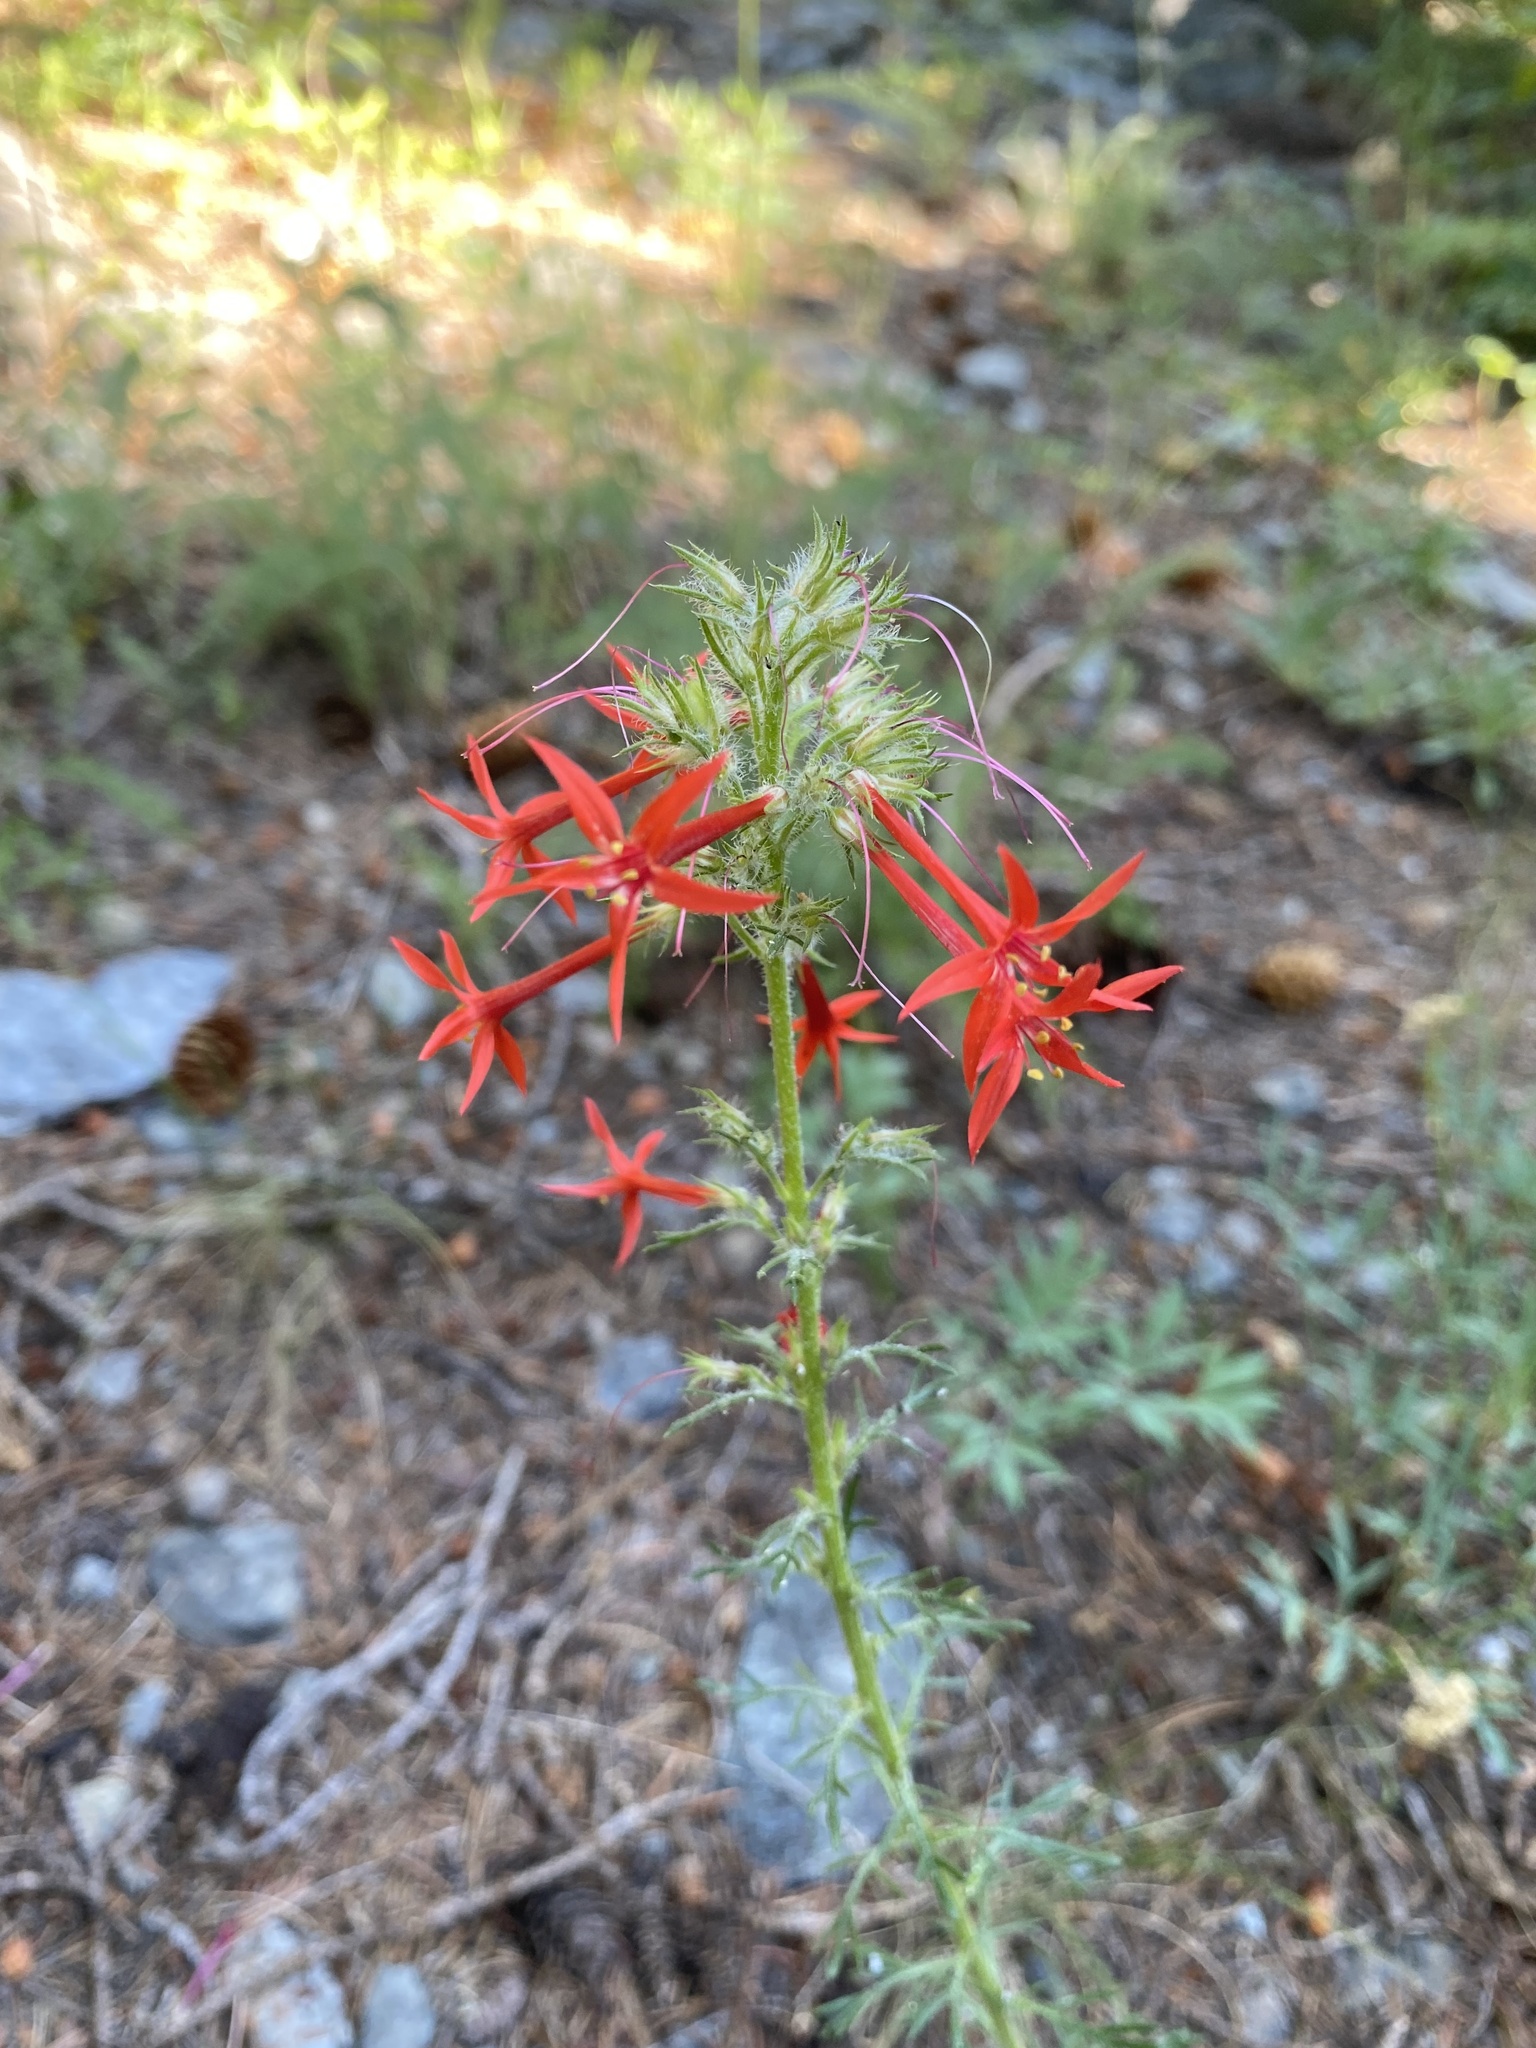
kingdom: Plantae
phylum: Tracheophyta
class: Magnoliopsida
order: Ericales
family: Polemoniaceae
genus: Ipomopsis
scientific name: Ipomopsis aggregata
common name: Scarlet gilia
